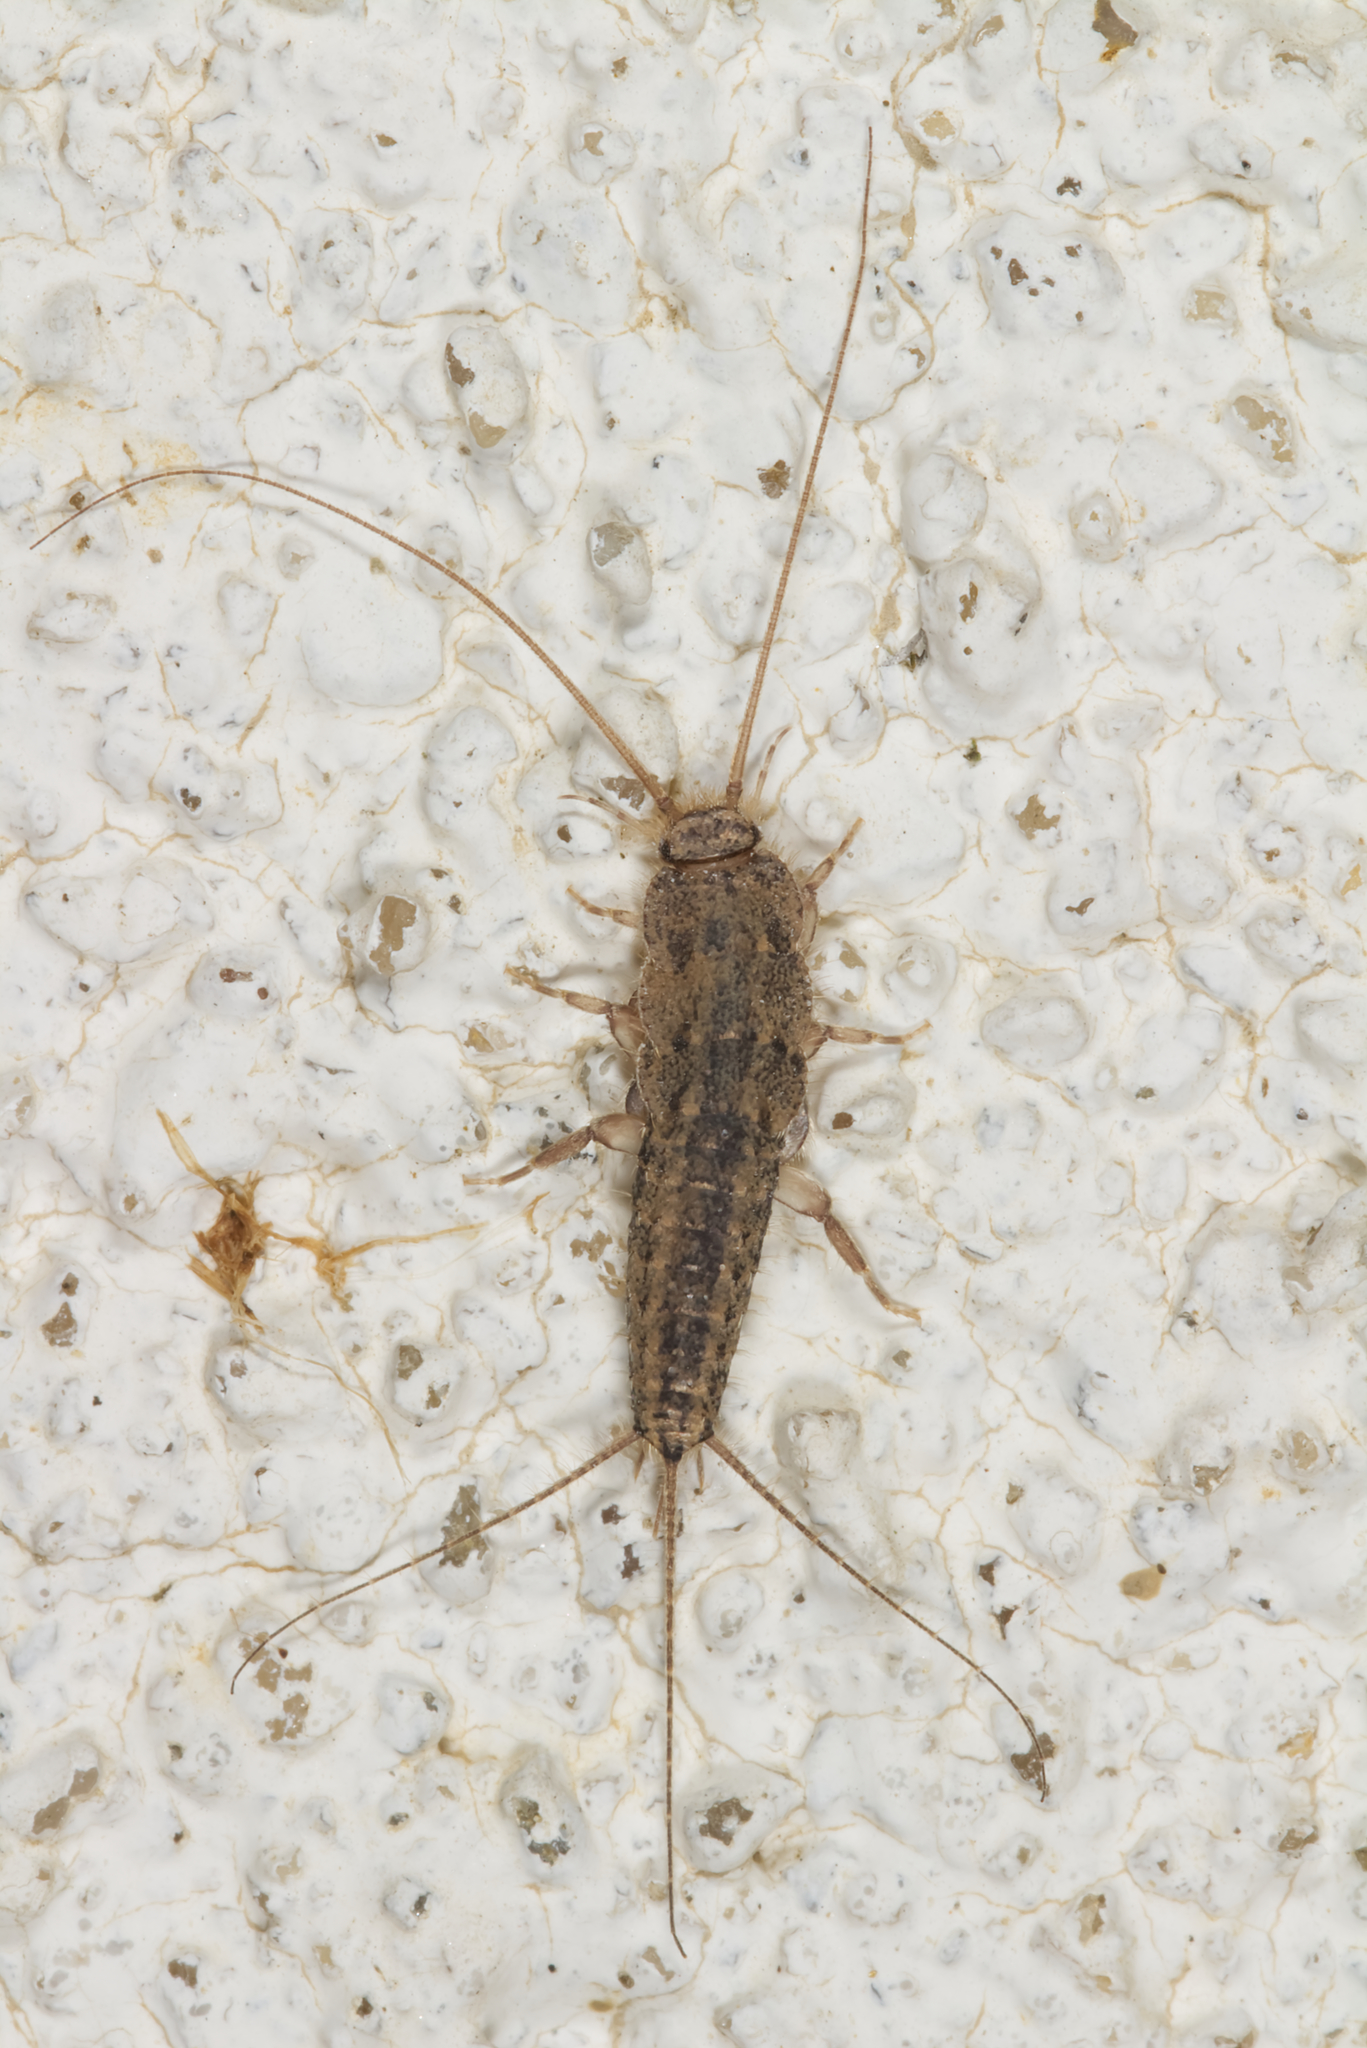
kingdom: Animalia
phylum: Arthropoda
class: Insecta
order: Zygentoma
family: Lepismatidae
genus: Ctenolepisma
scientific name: Ctenolepisma lineata
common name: Four-lined silverfish
